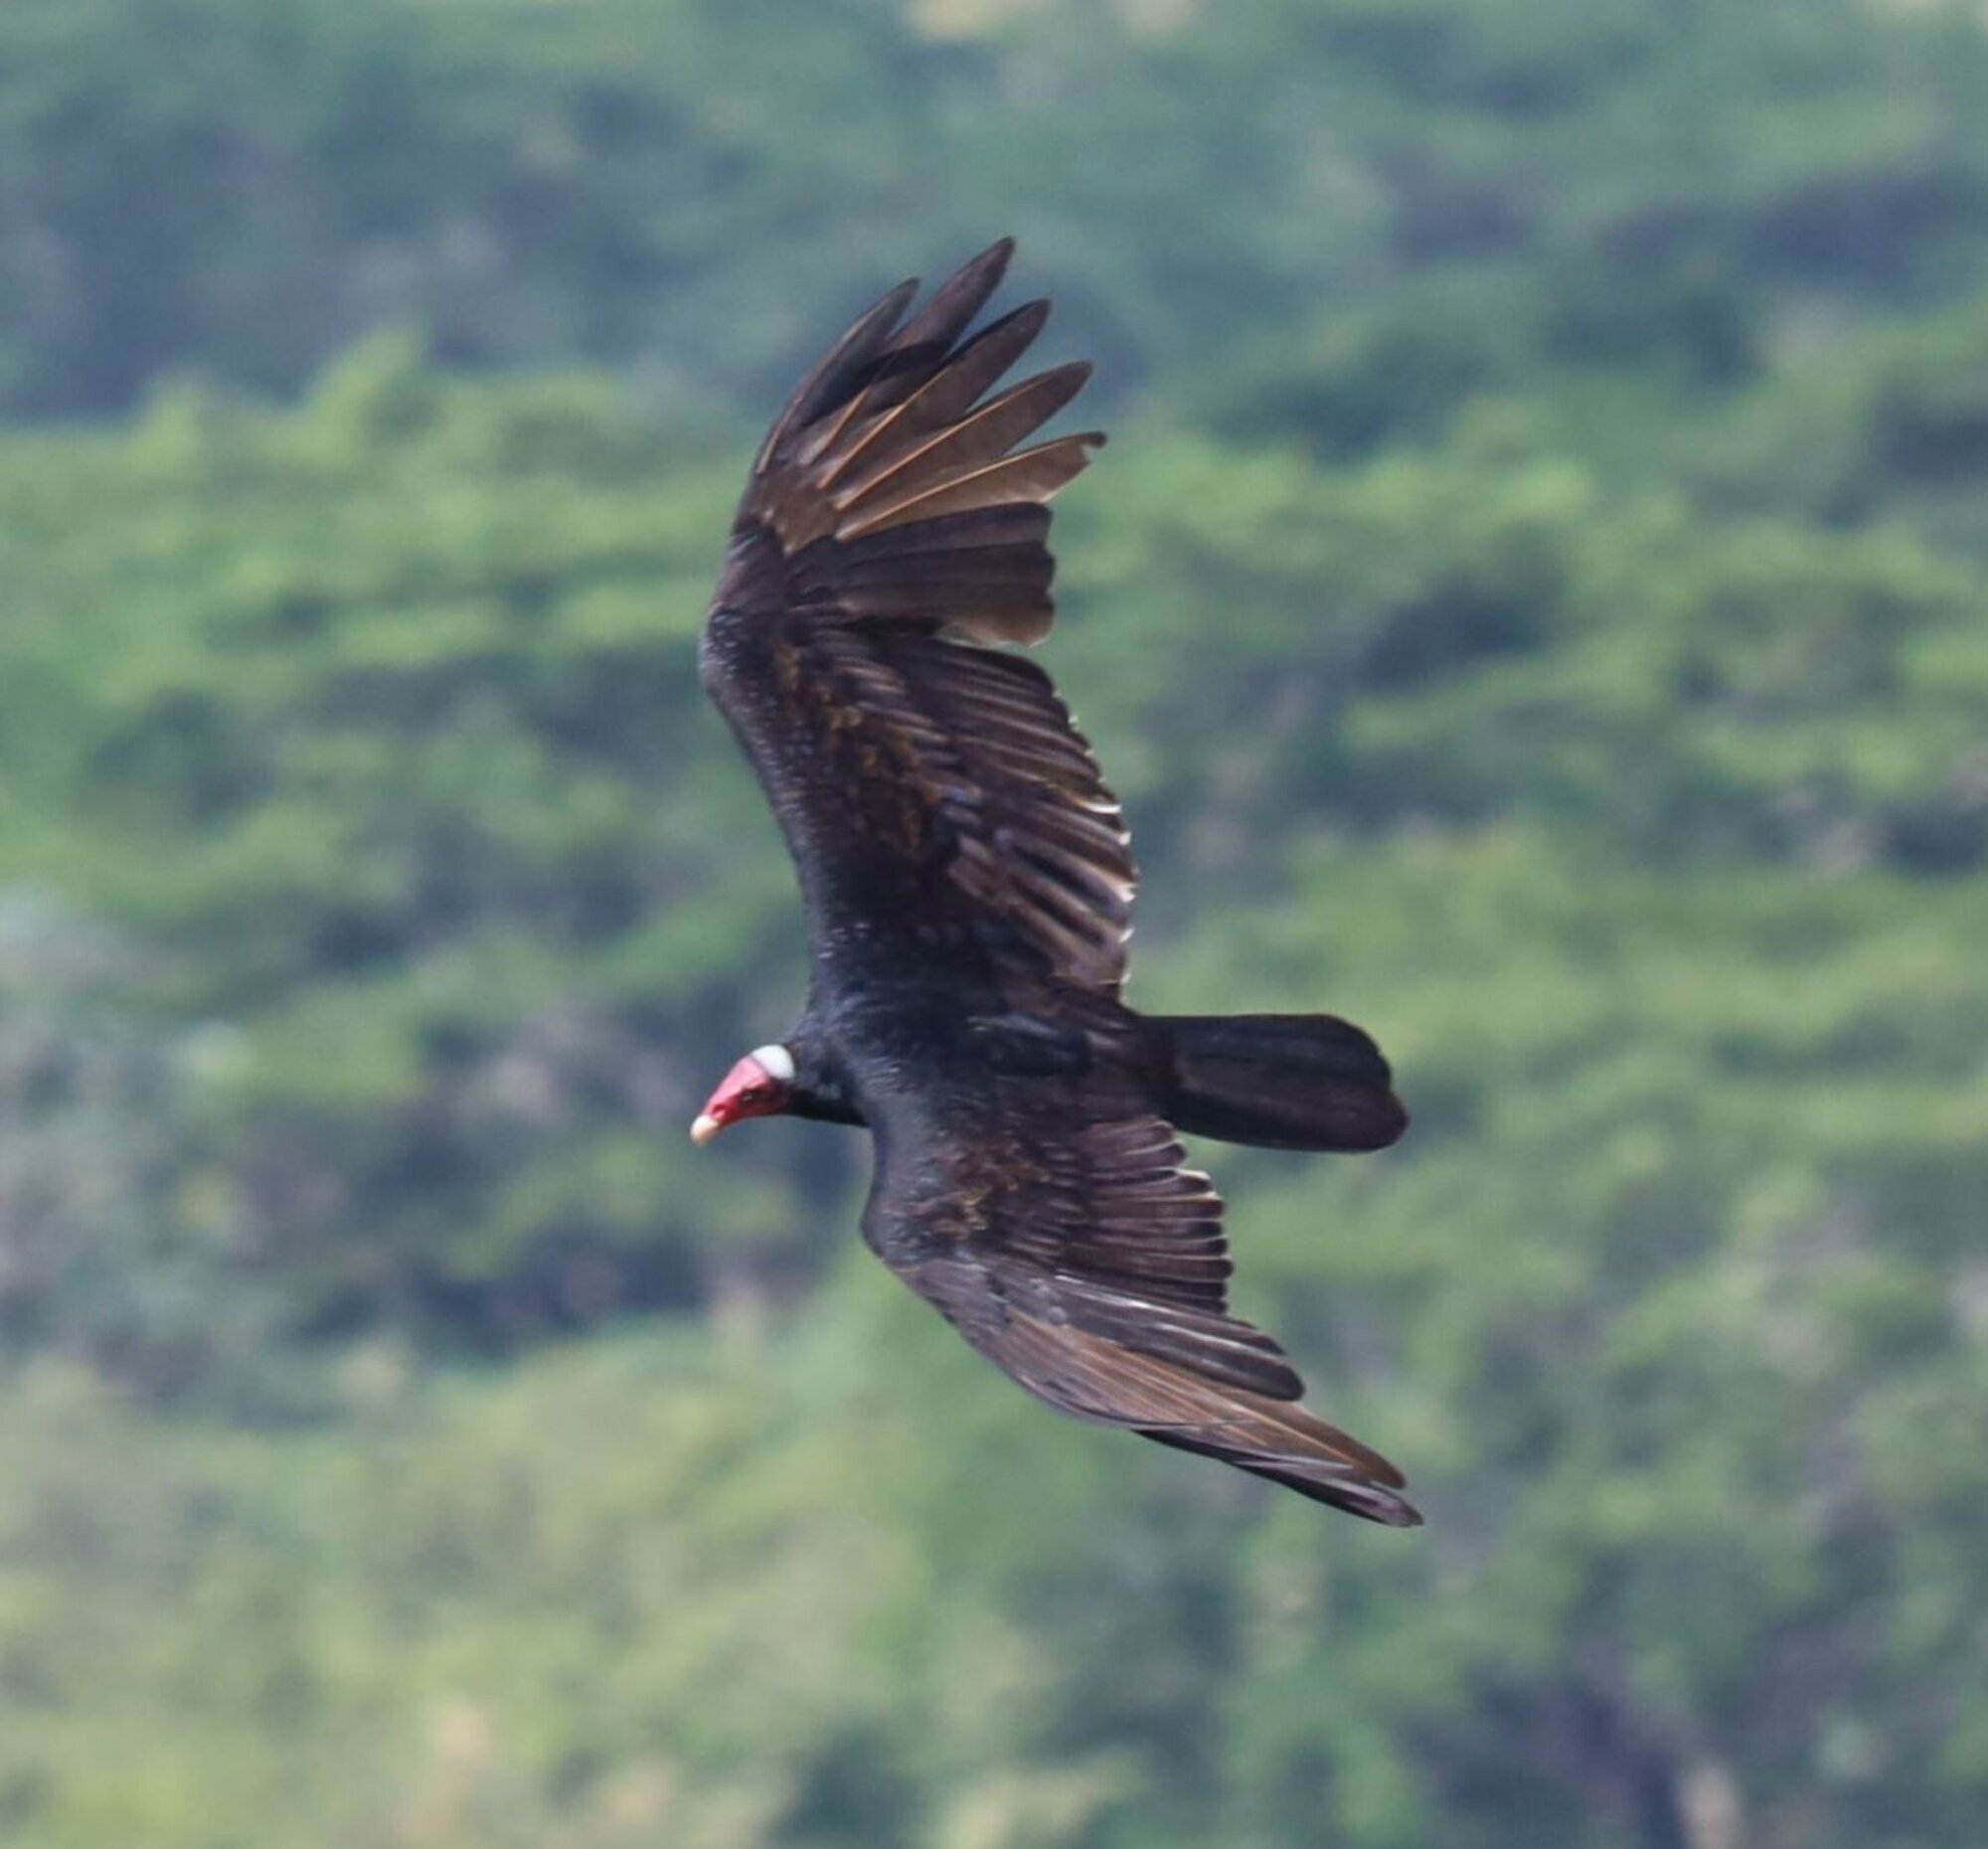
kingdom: Animalia
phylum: Chordata
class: Aves
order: Accipitriformes
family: Cathartidae
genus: Cathartes
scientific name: Cathartes aura
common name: Turkey vulture
